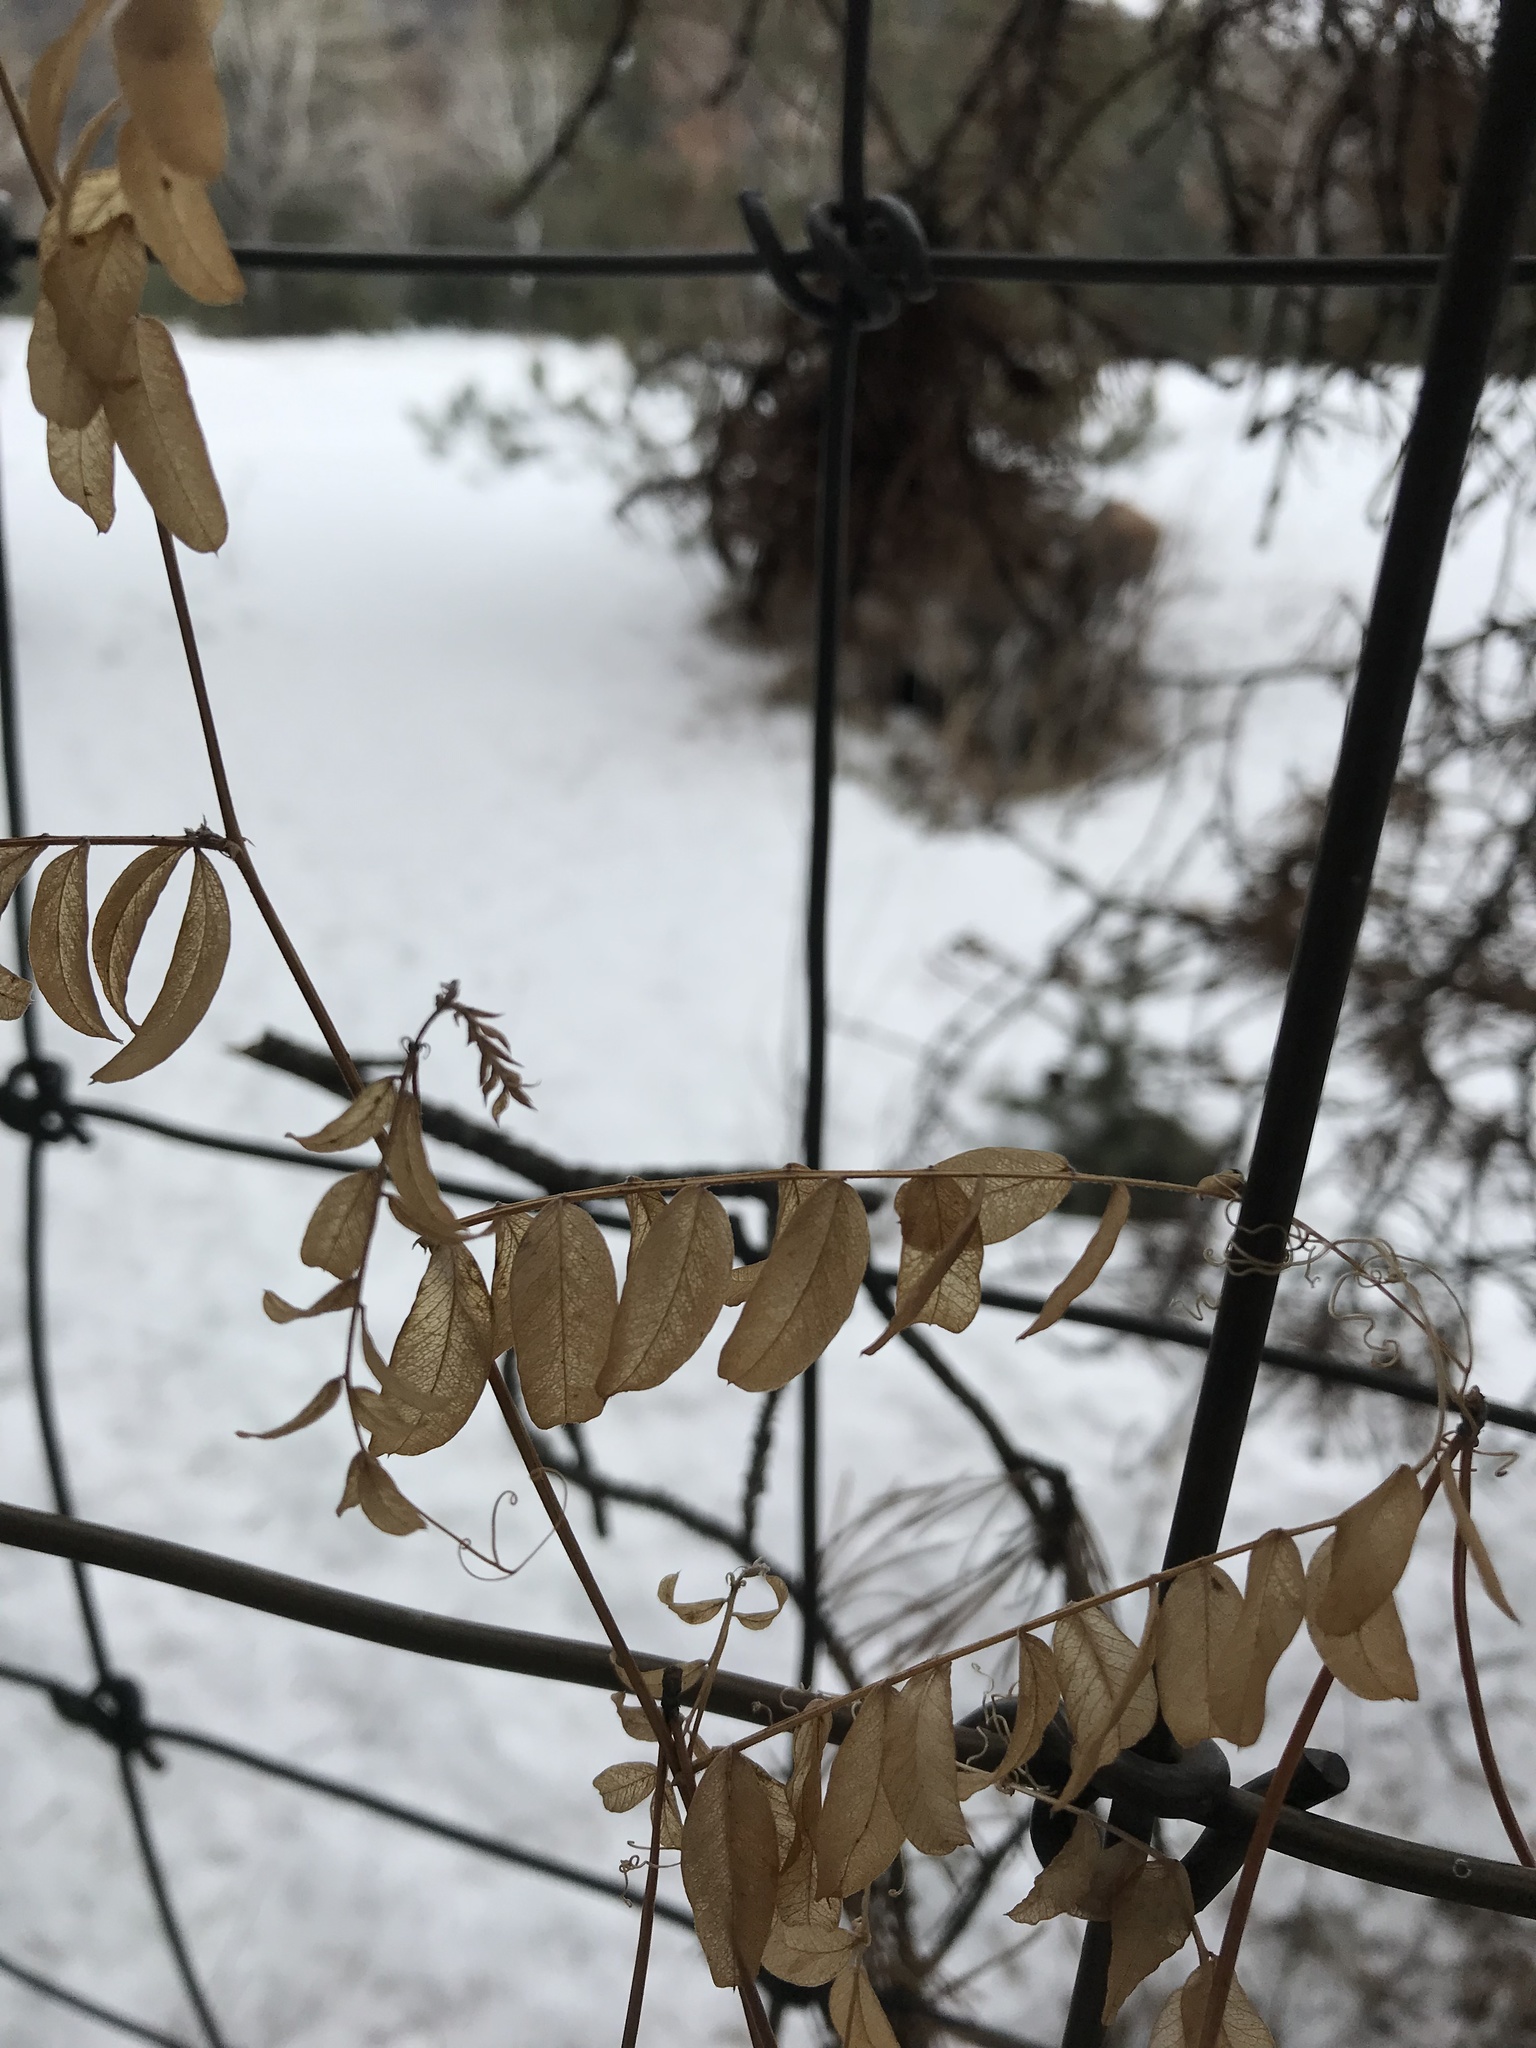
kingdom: Plantae
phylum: Tracheophyta
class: Magnoliopsida
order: Fabales
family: Fabaceae
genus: Vicia
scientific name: Vicia americana
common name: American vetch
